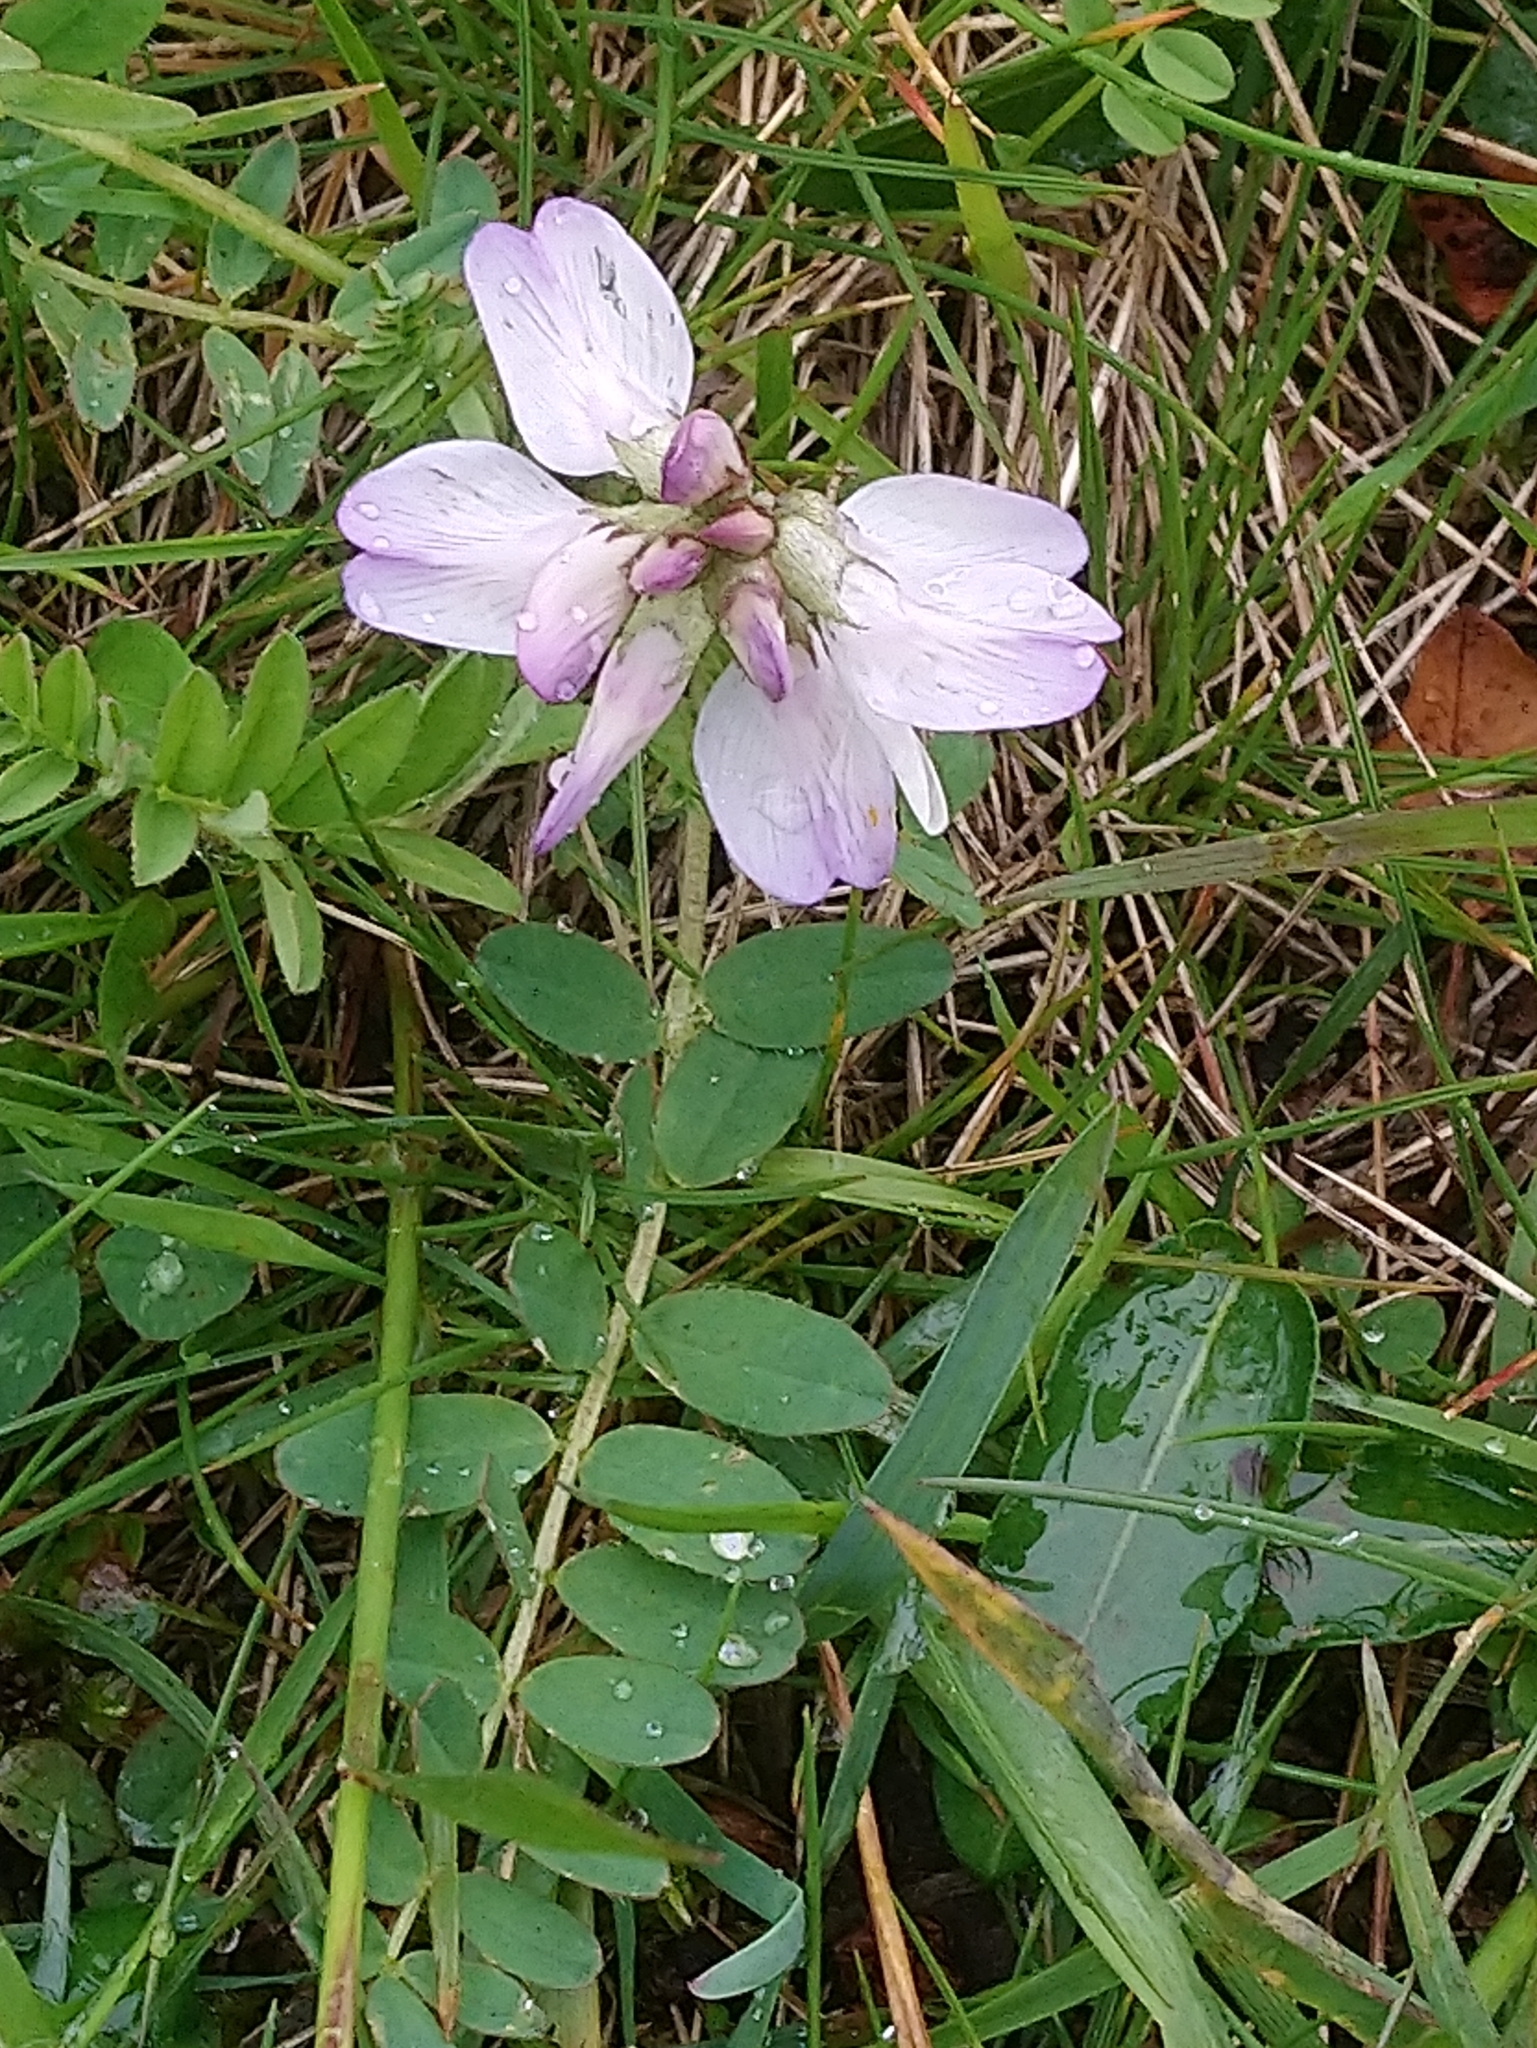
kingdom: Plantae
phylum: Tracheophyta
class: Magnoliopsida
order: Fabales
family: Fabaceae
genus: Astragalus
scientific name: Astragalus alpinus
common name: Alpine milk-vetch
